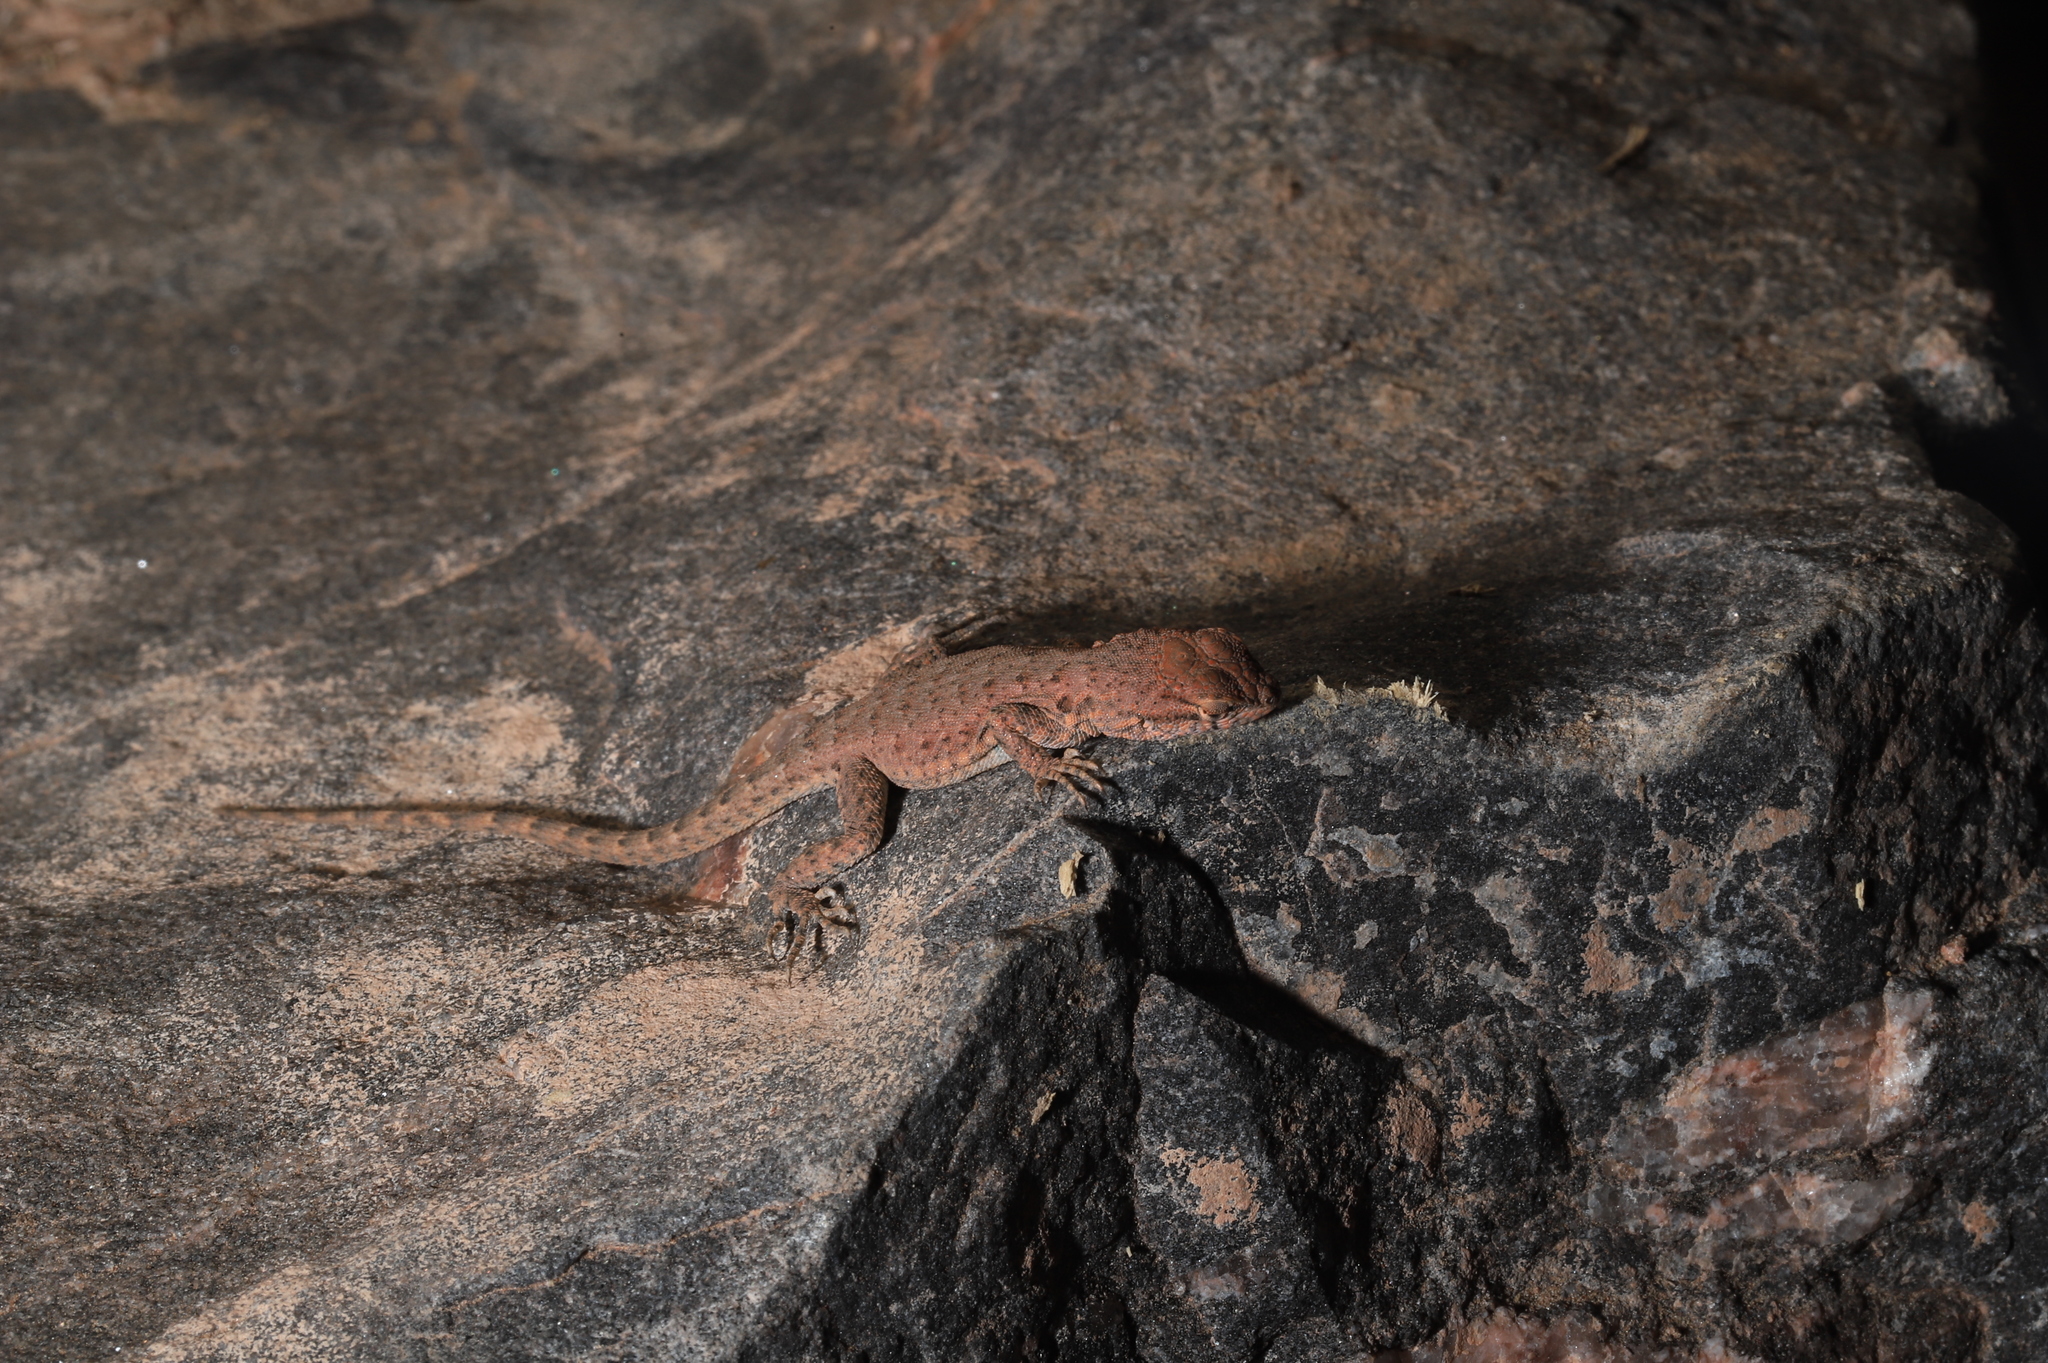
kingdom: Animalia
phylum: Chordata
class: Squamata
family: Phrynosomatidae
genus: Uta
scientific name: Uta stansburiana
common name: Side-blotched lizard
